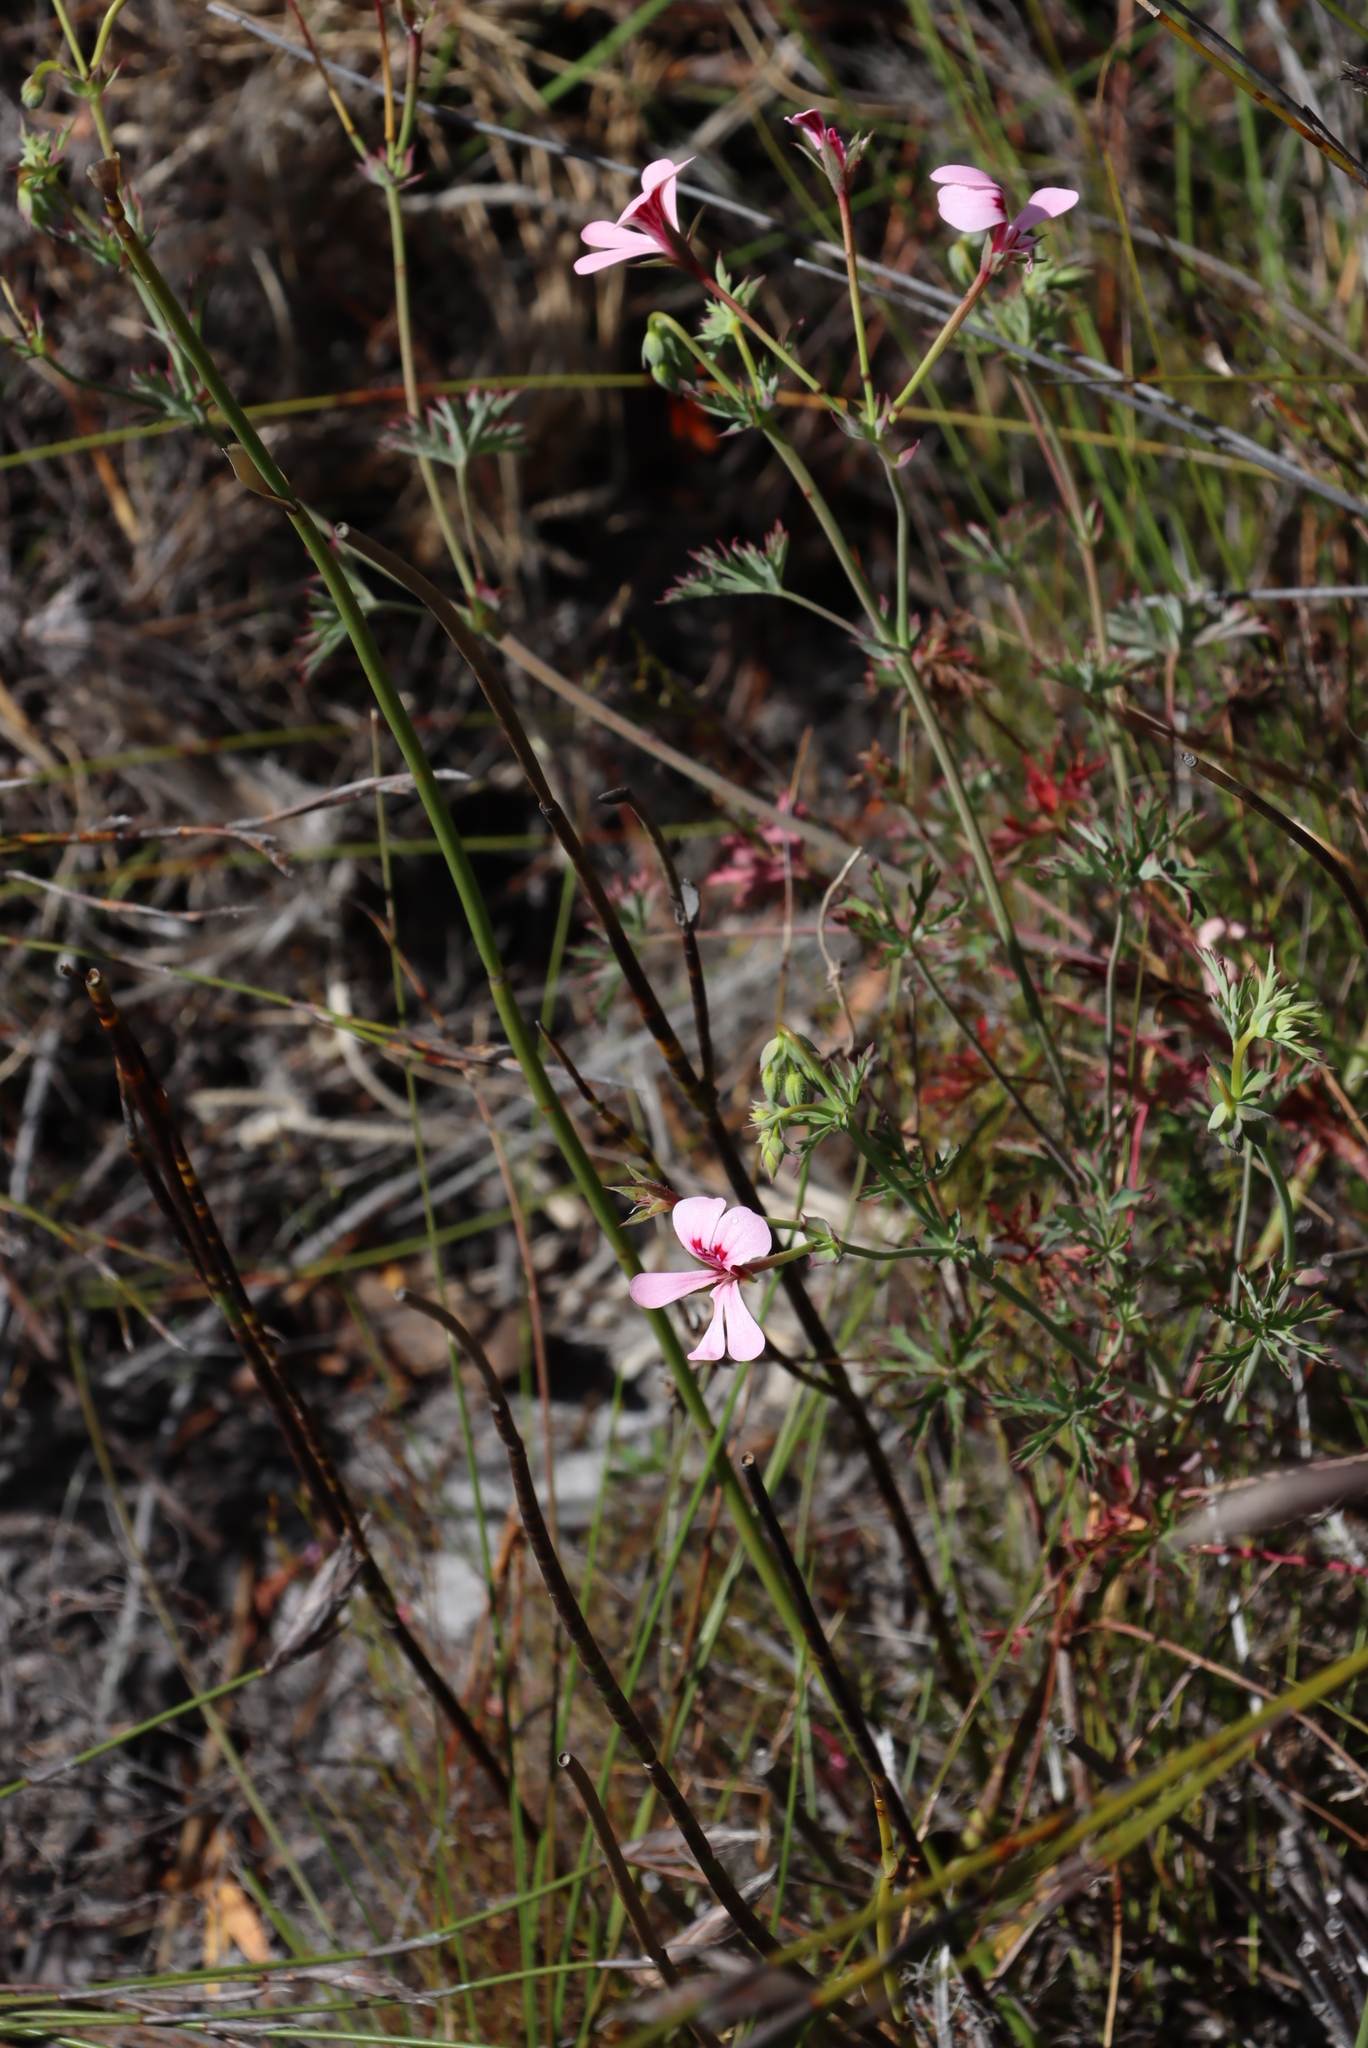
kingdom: Plantae
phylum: Tracheophyta
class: Magnoliopsida
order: Geraniales
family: Geraniaceae
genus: Pelargonium
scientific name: Pelargonium patulum
